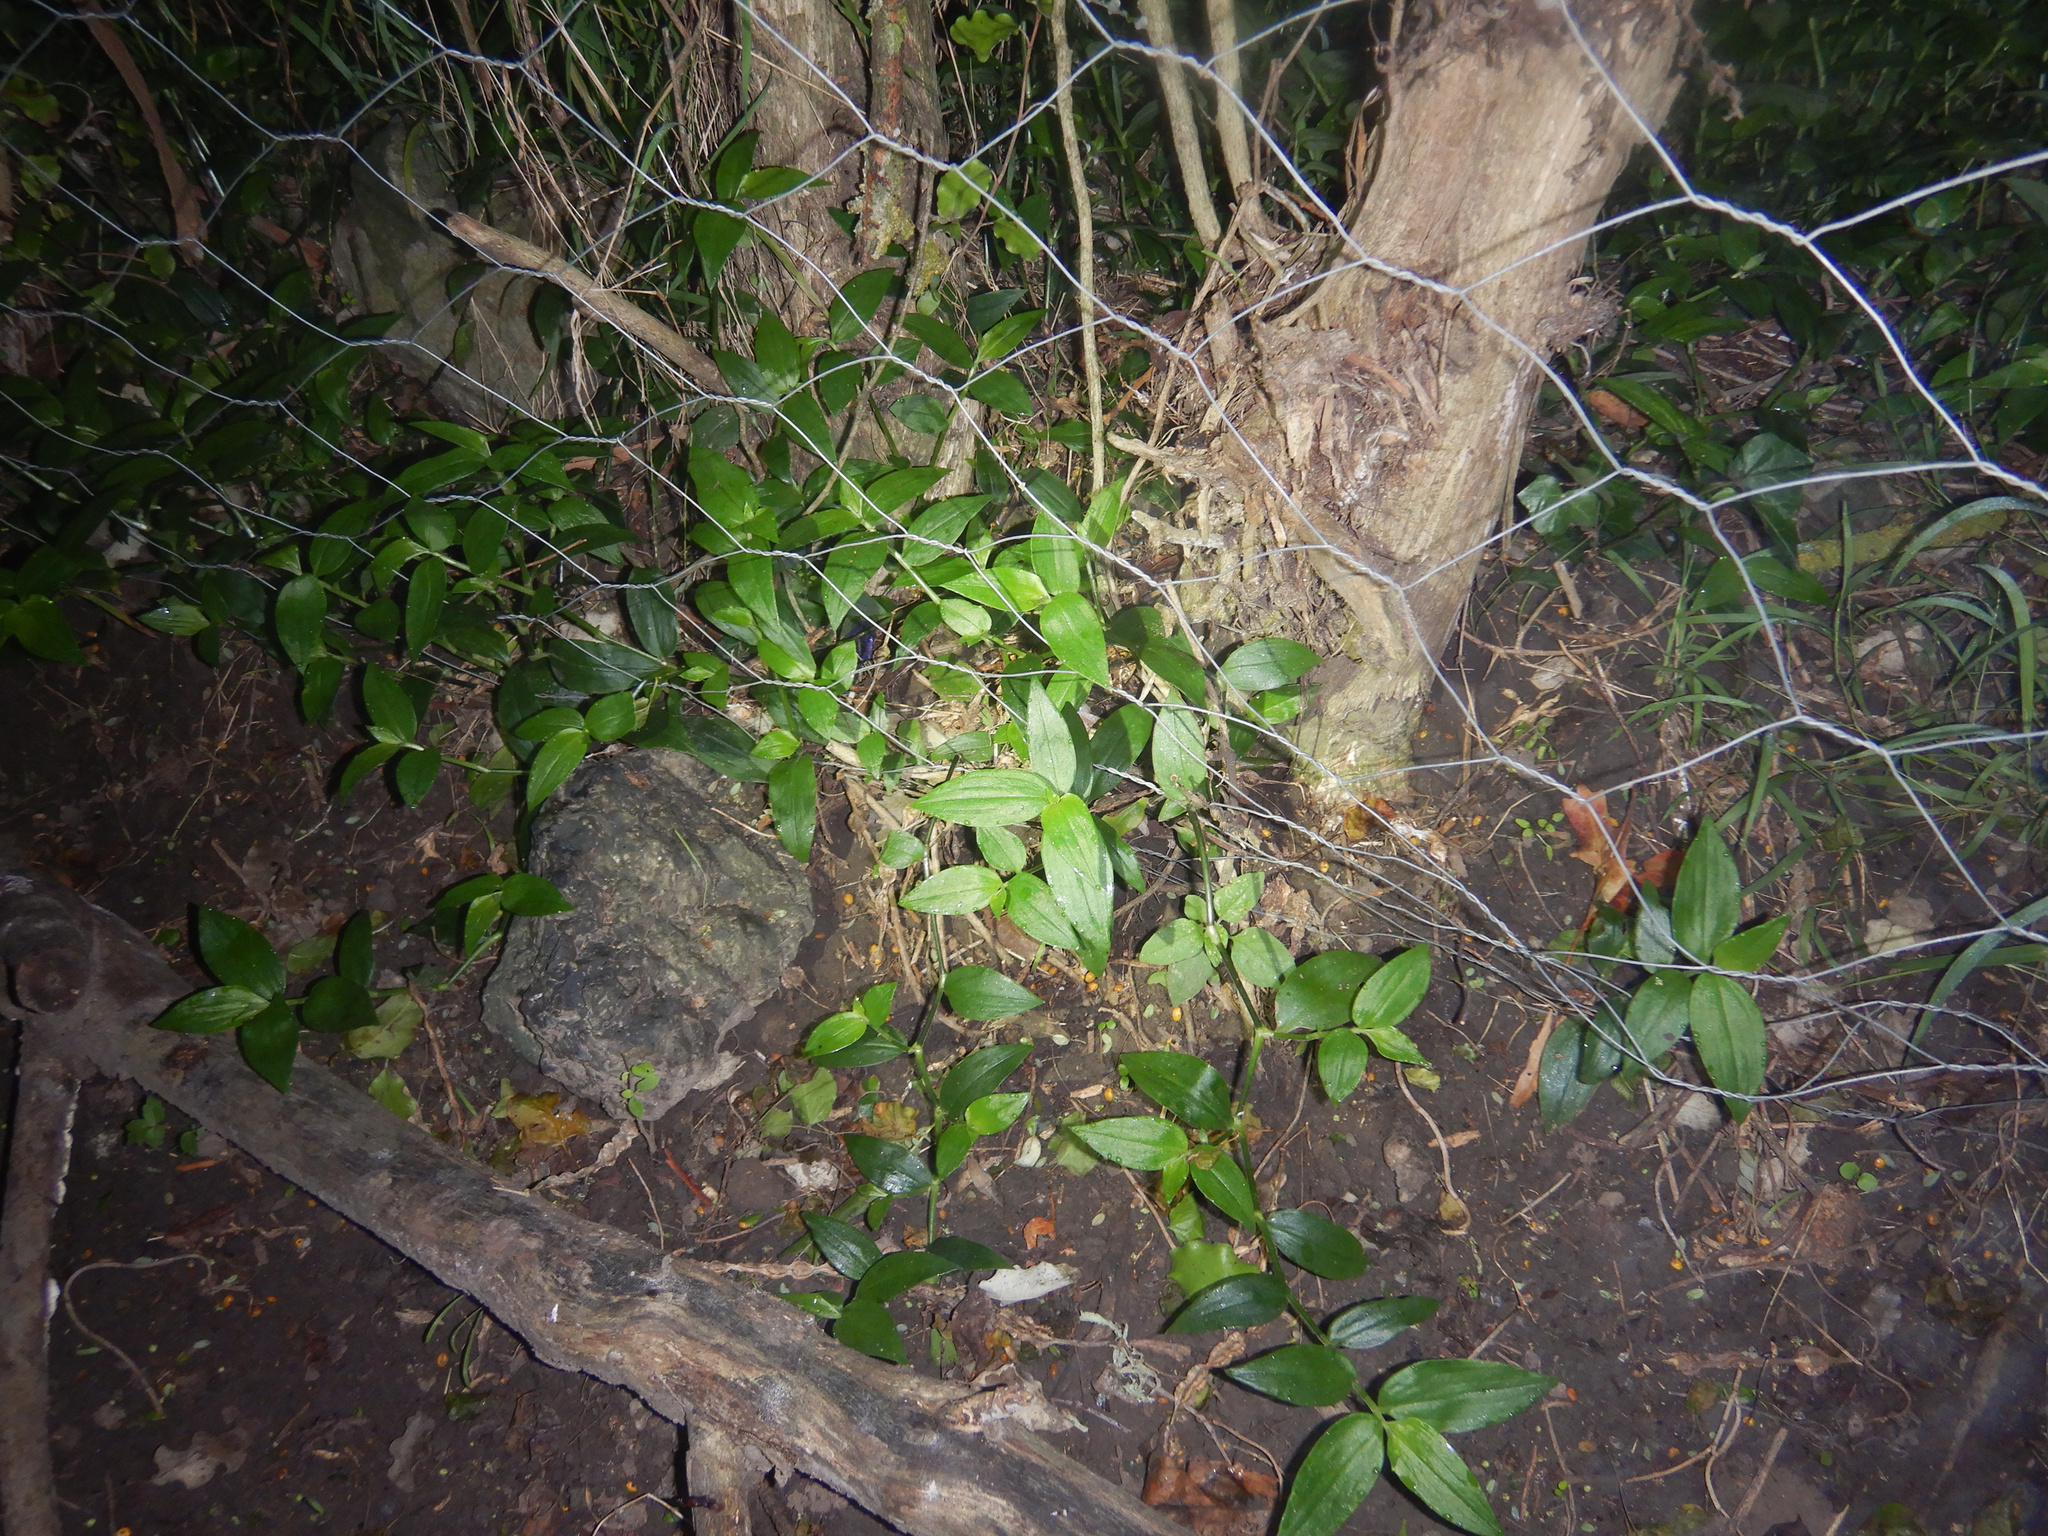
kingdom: Plantae
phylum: Tracheophyta
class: Liliopsida
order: Commelinales
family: Commelinaceae
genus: Tradescantia
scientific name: Tradescantia fluminensis
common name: Wandering-jew
